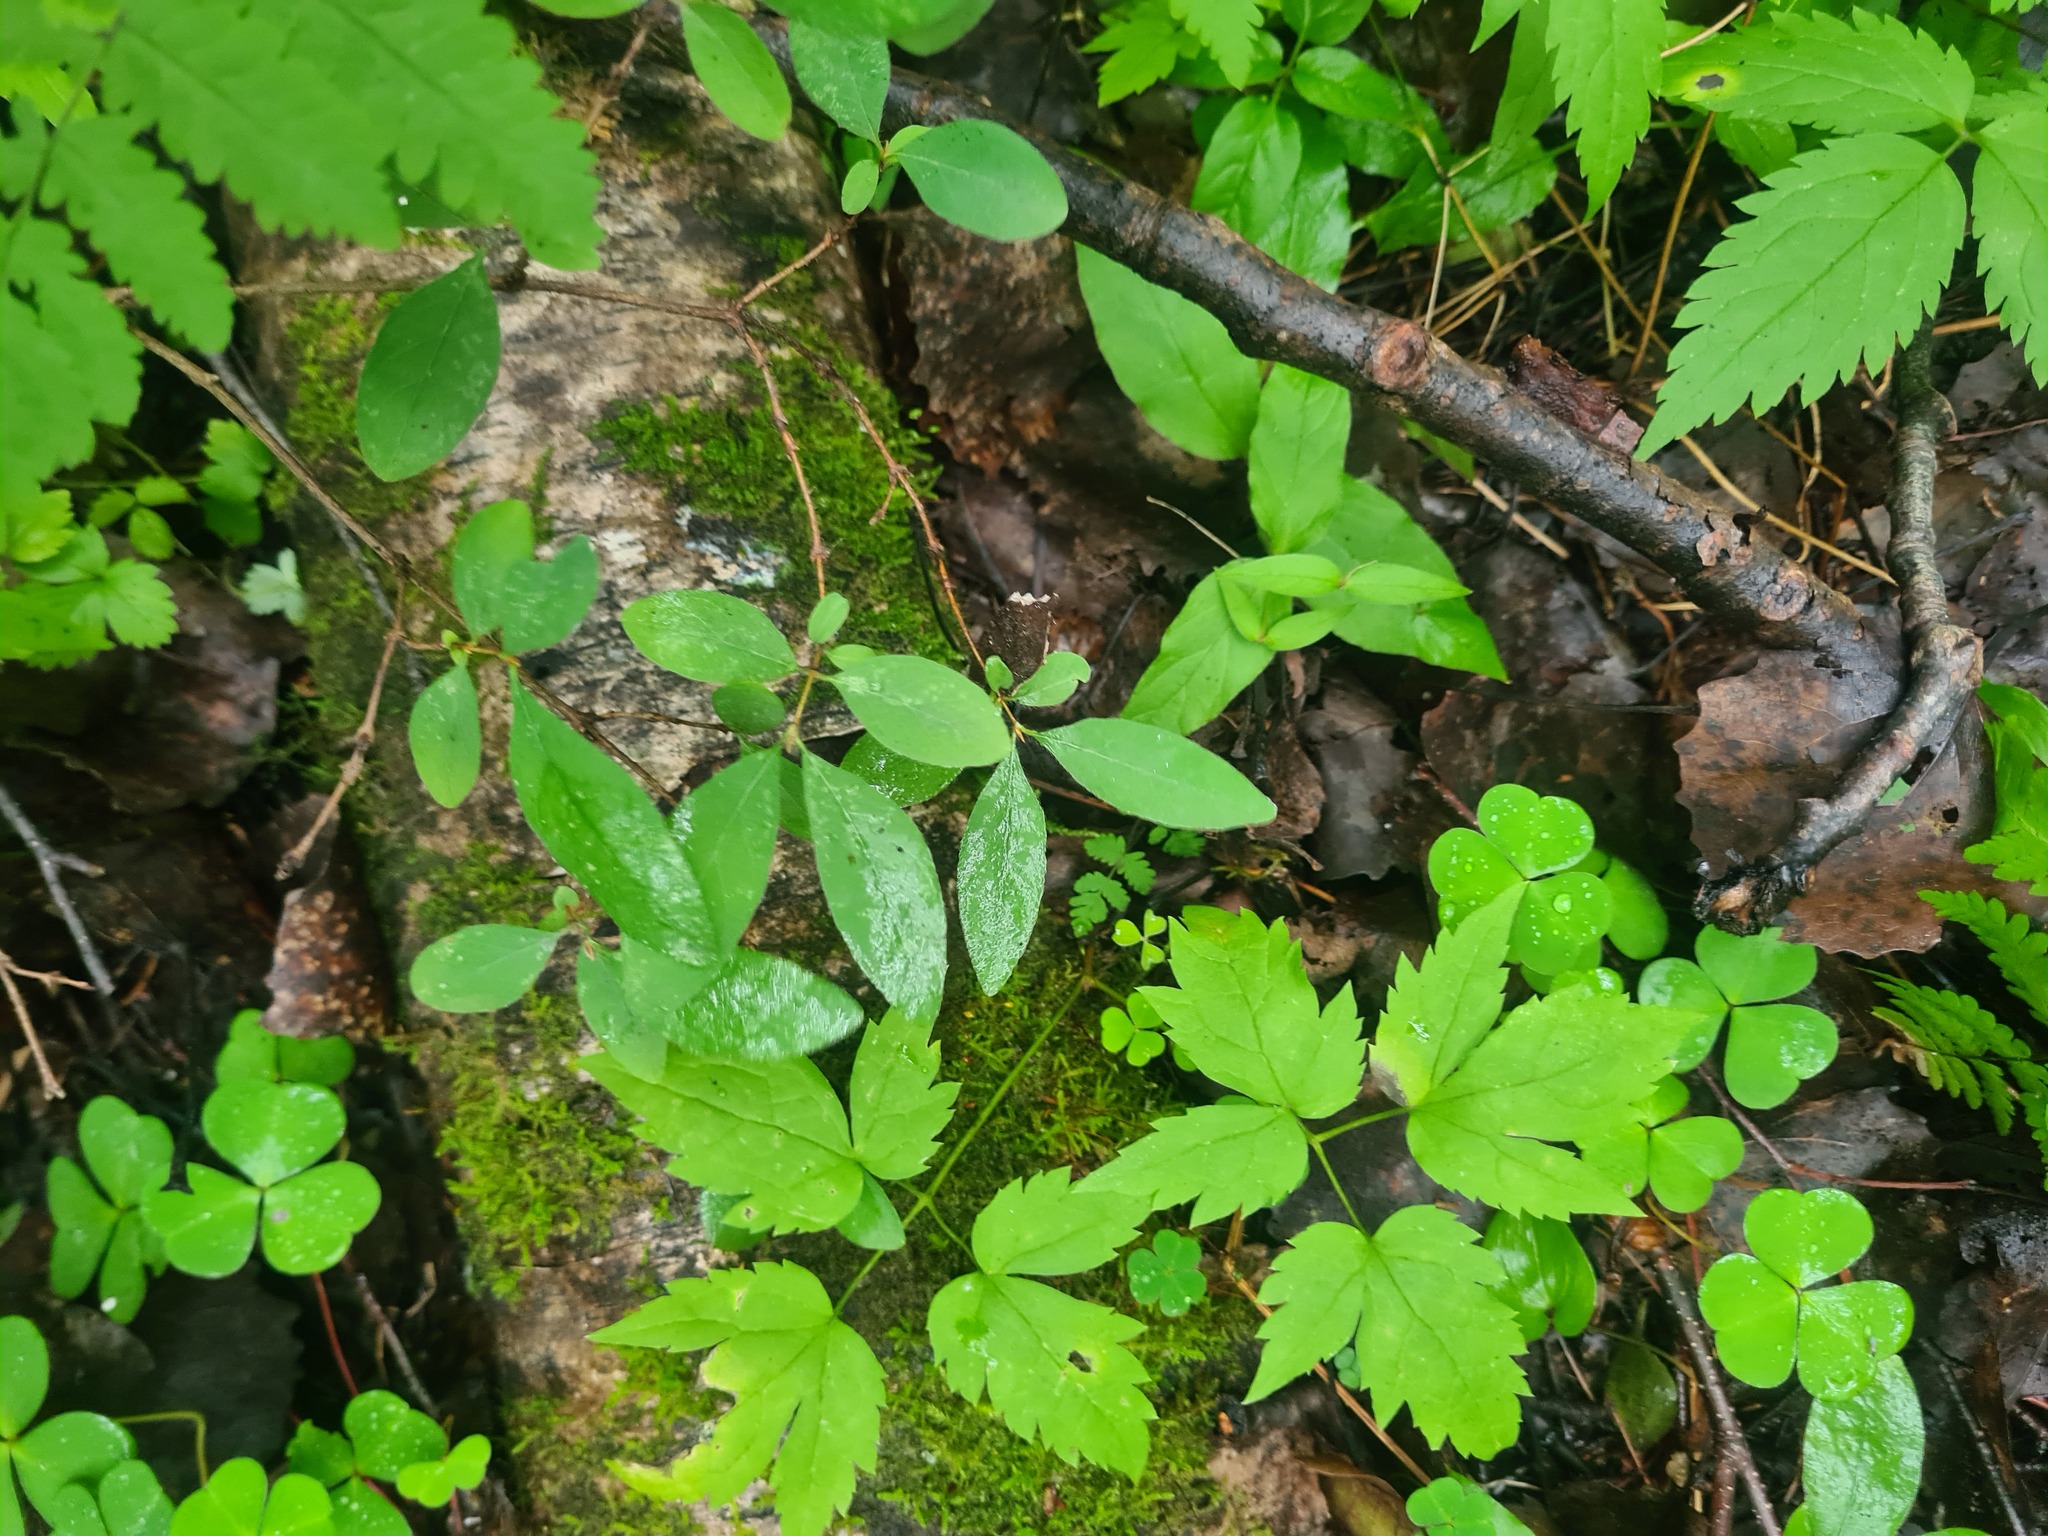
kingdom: Plantae
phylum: Tracheophyta
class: Magnoliopsida
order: Dipsacales
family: Caprifoliaceae
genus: Lonicera
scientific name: Lonicera caerulea
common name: Blue honeysuckle
